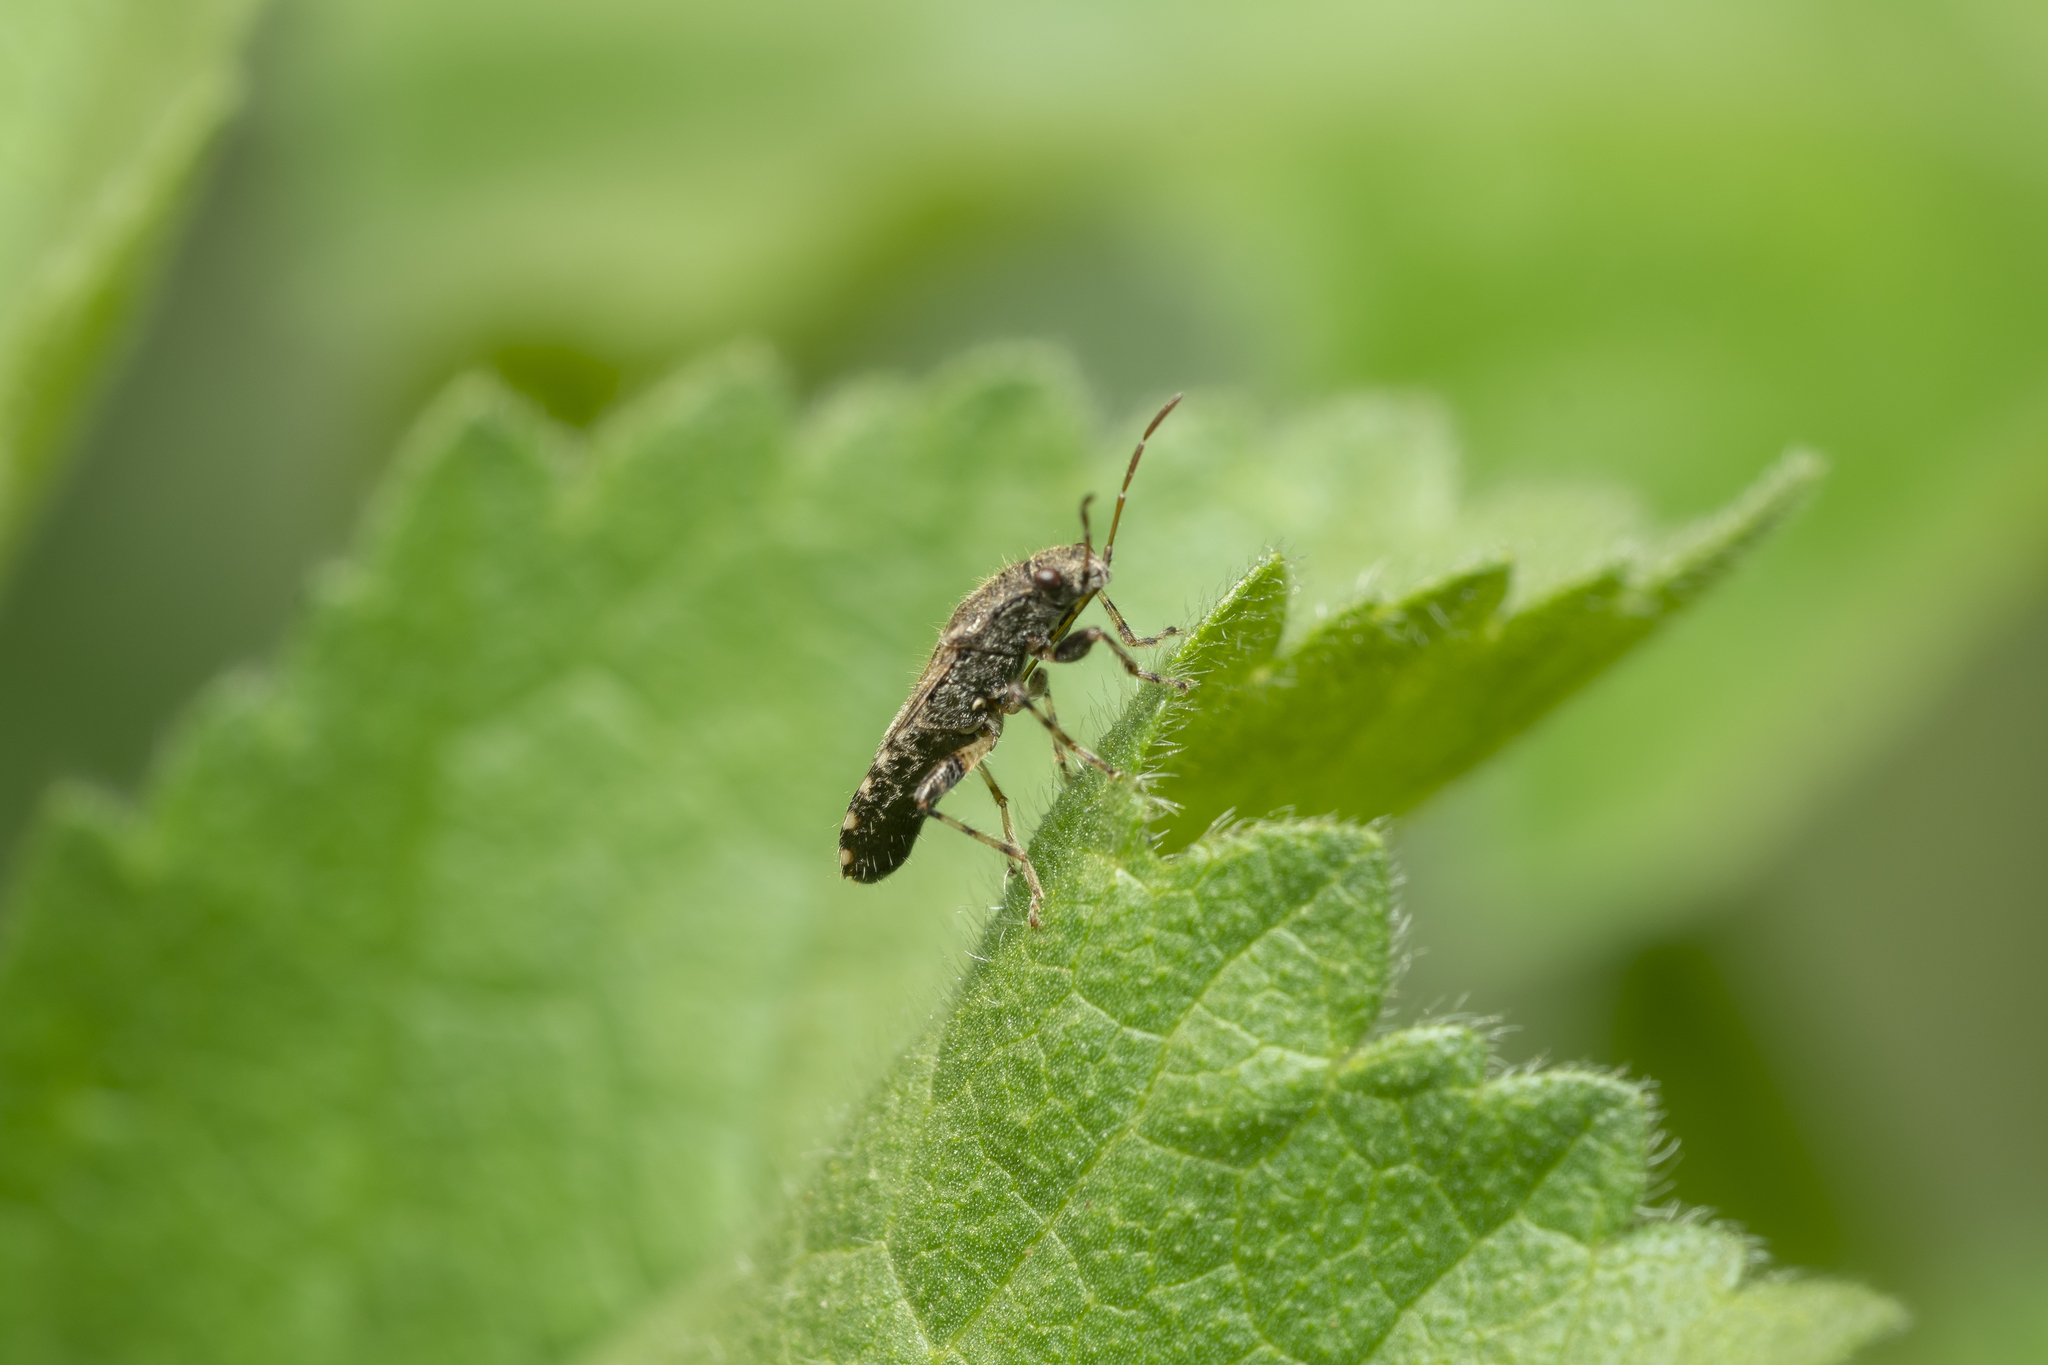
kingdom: Animalia
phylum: Arthropoda
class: Insecta
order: Hemiptera
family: Heterogastridae
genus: Heterogaster
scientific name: Heterogaster urticae
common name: Seed bug
